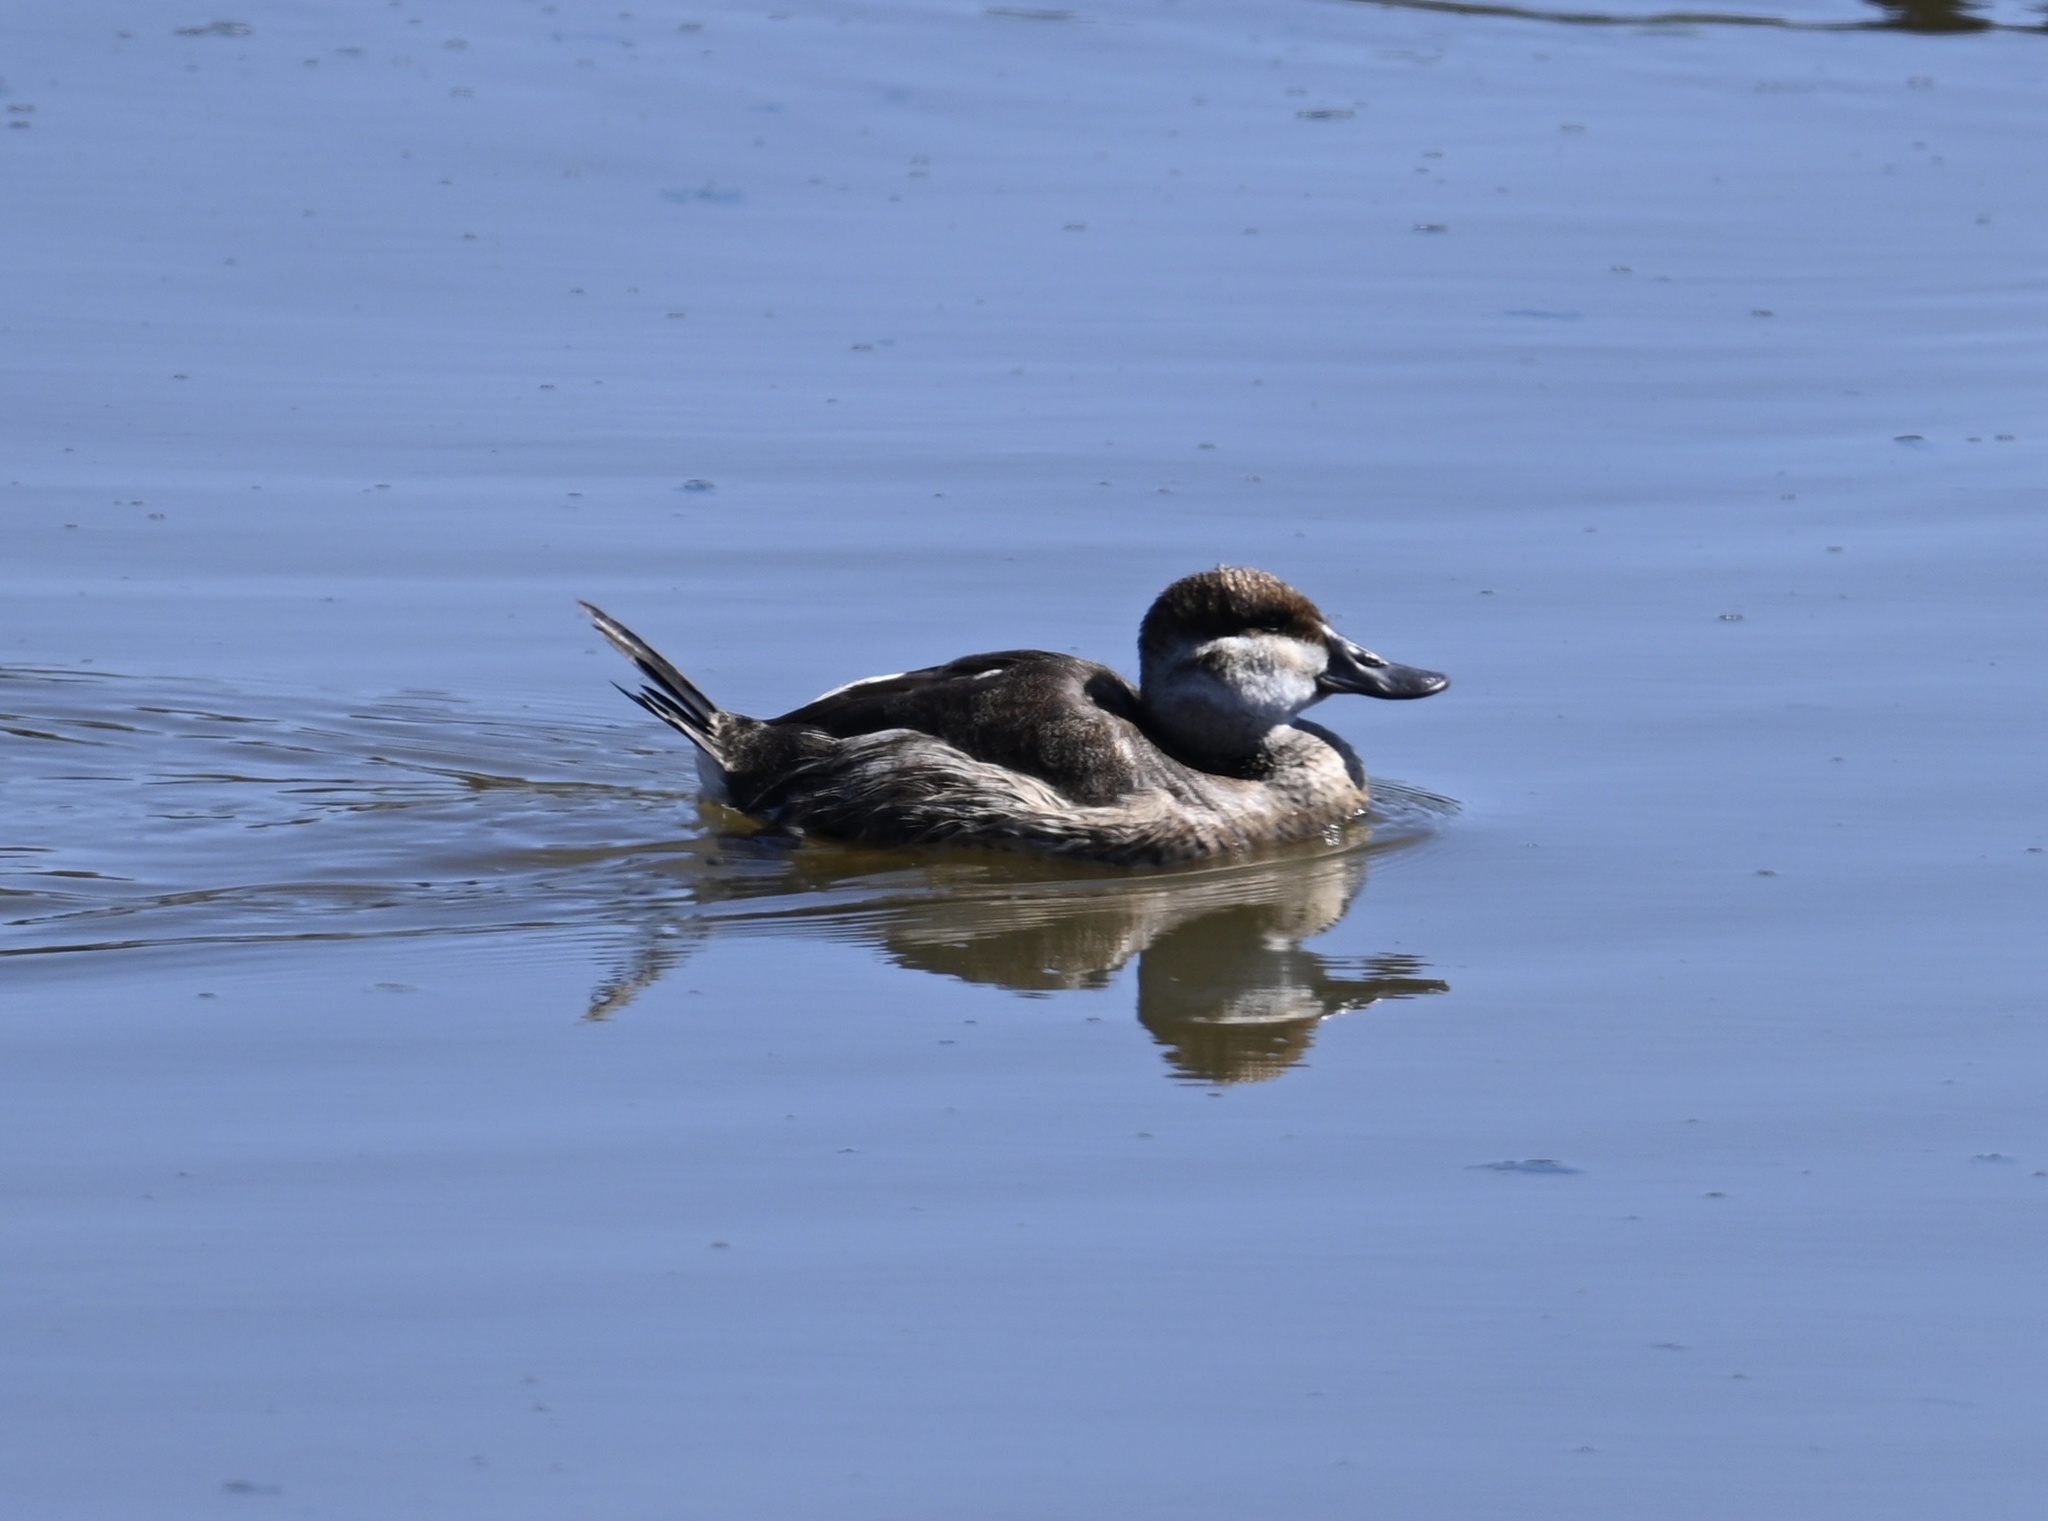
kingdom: Animalia
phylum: Chordata
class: Aves
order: Anseriformes
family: Anatidae
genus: Oxyura
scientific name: Oxyura jamaicensis
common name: Ruddy duck
